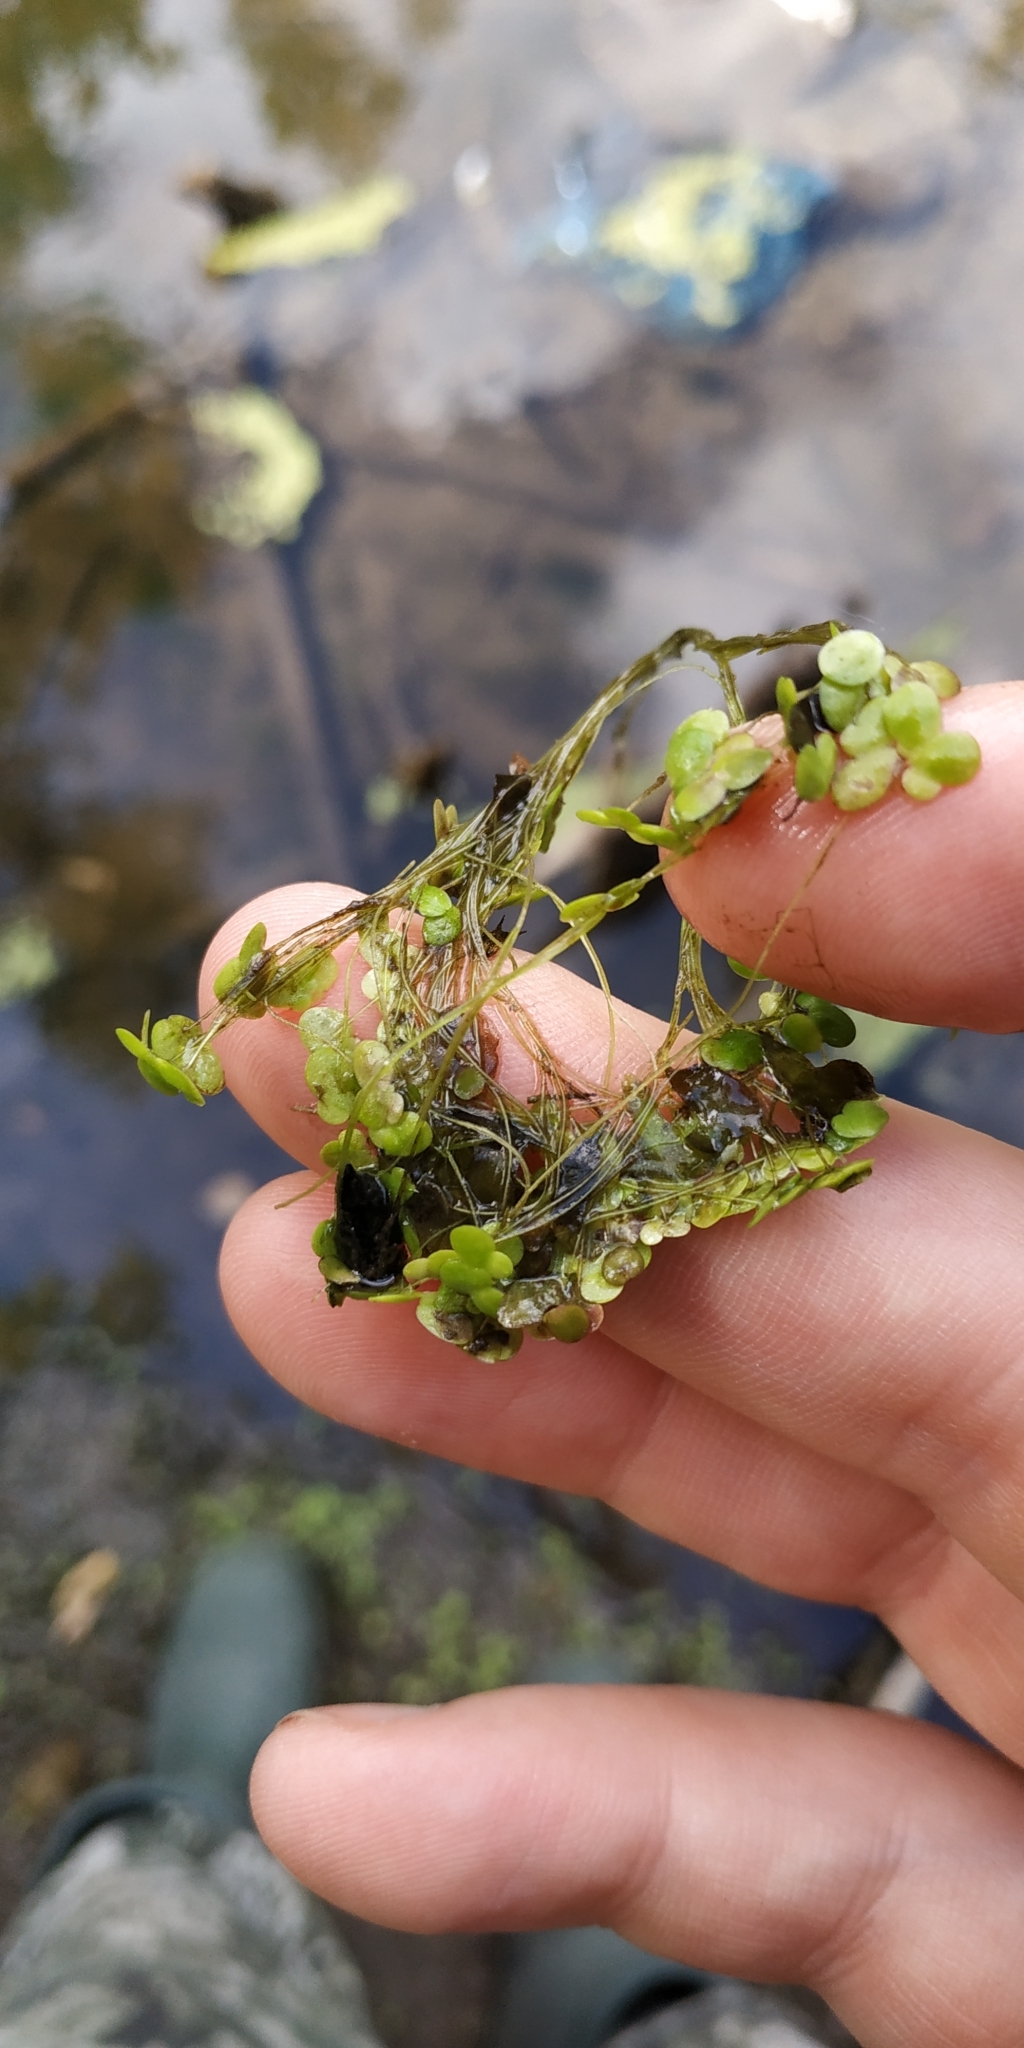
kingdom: Plantae
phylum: Tracheophyta
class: Liliopsida
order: Alismatales
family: Araceae
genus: Lemna
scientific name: Lemna gibba
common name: Fat duckweed
